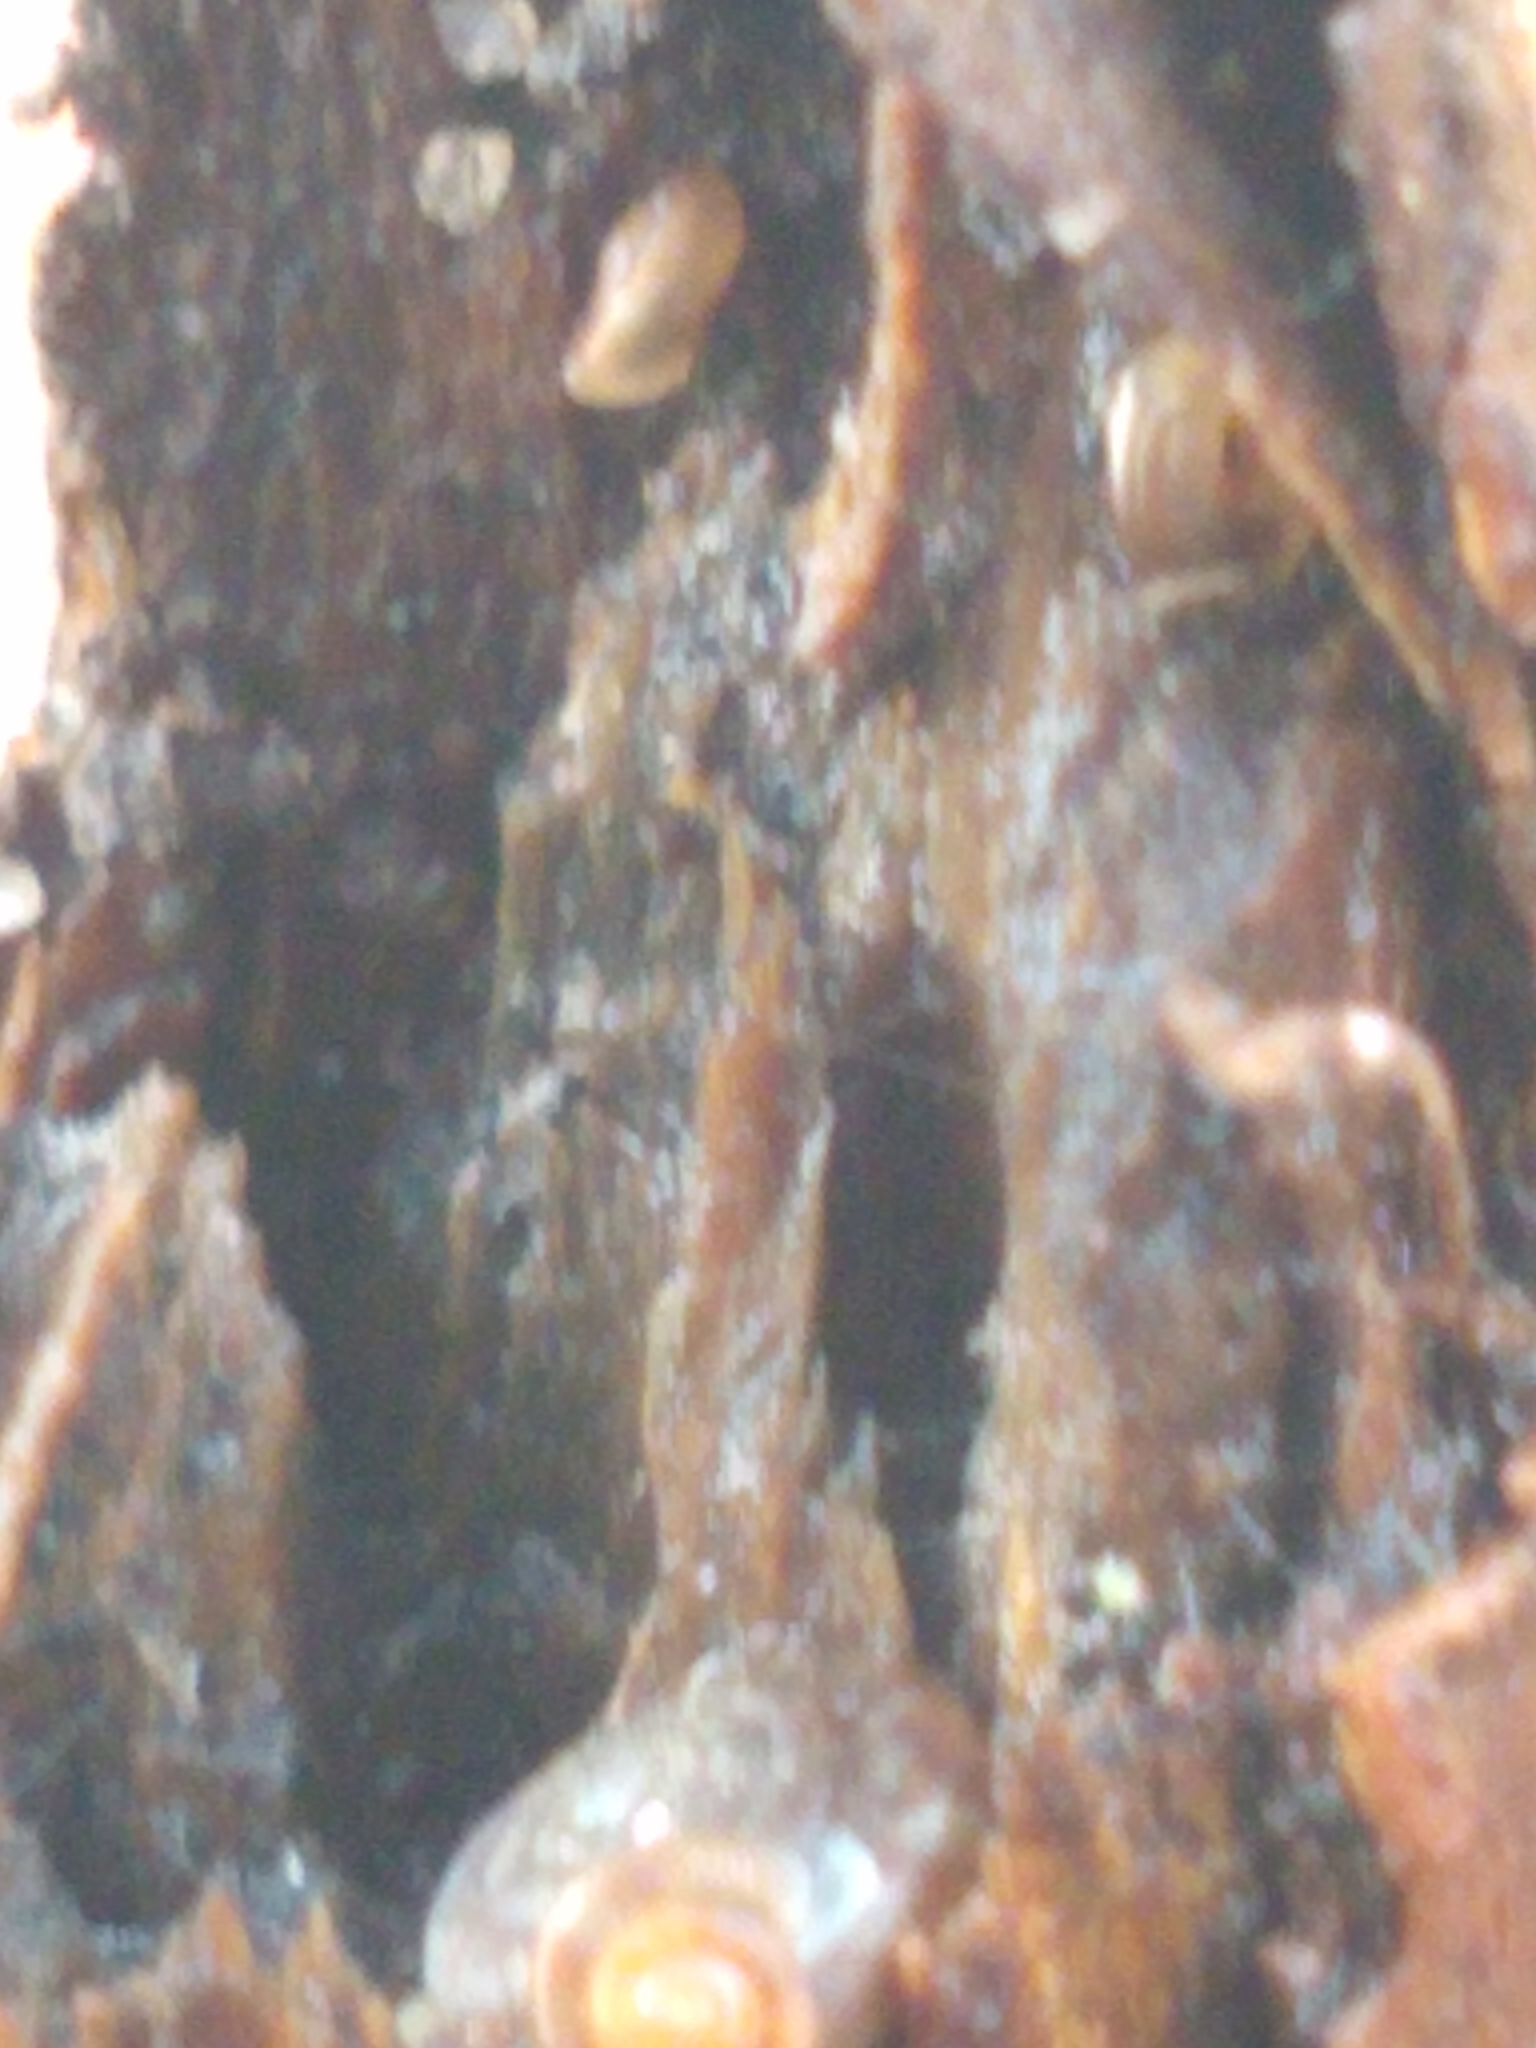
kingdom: Animalia
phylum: Mollusca
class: Gastropoda
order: Stylommatophora
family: Discidae
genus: Discus
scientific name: Discus rotundatus
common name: Rounded snail
